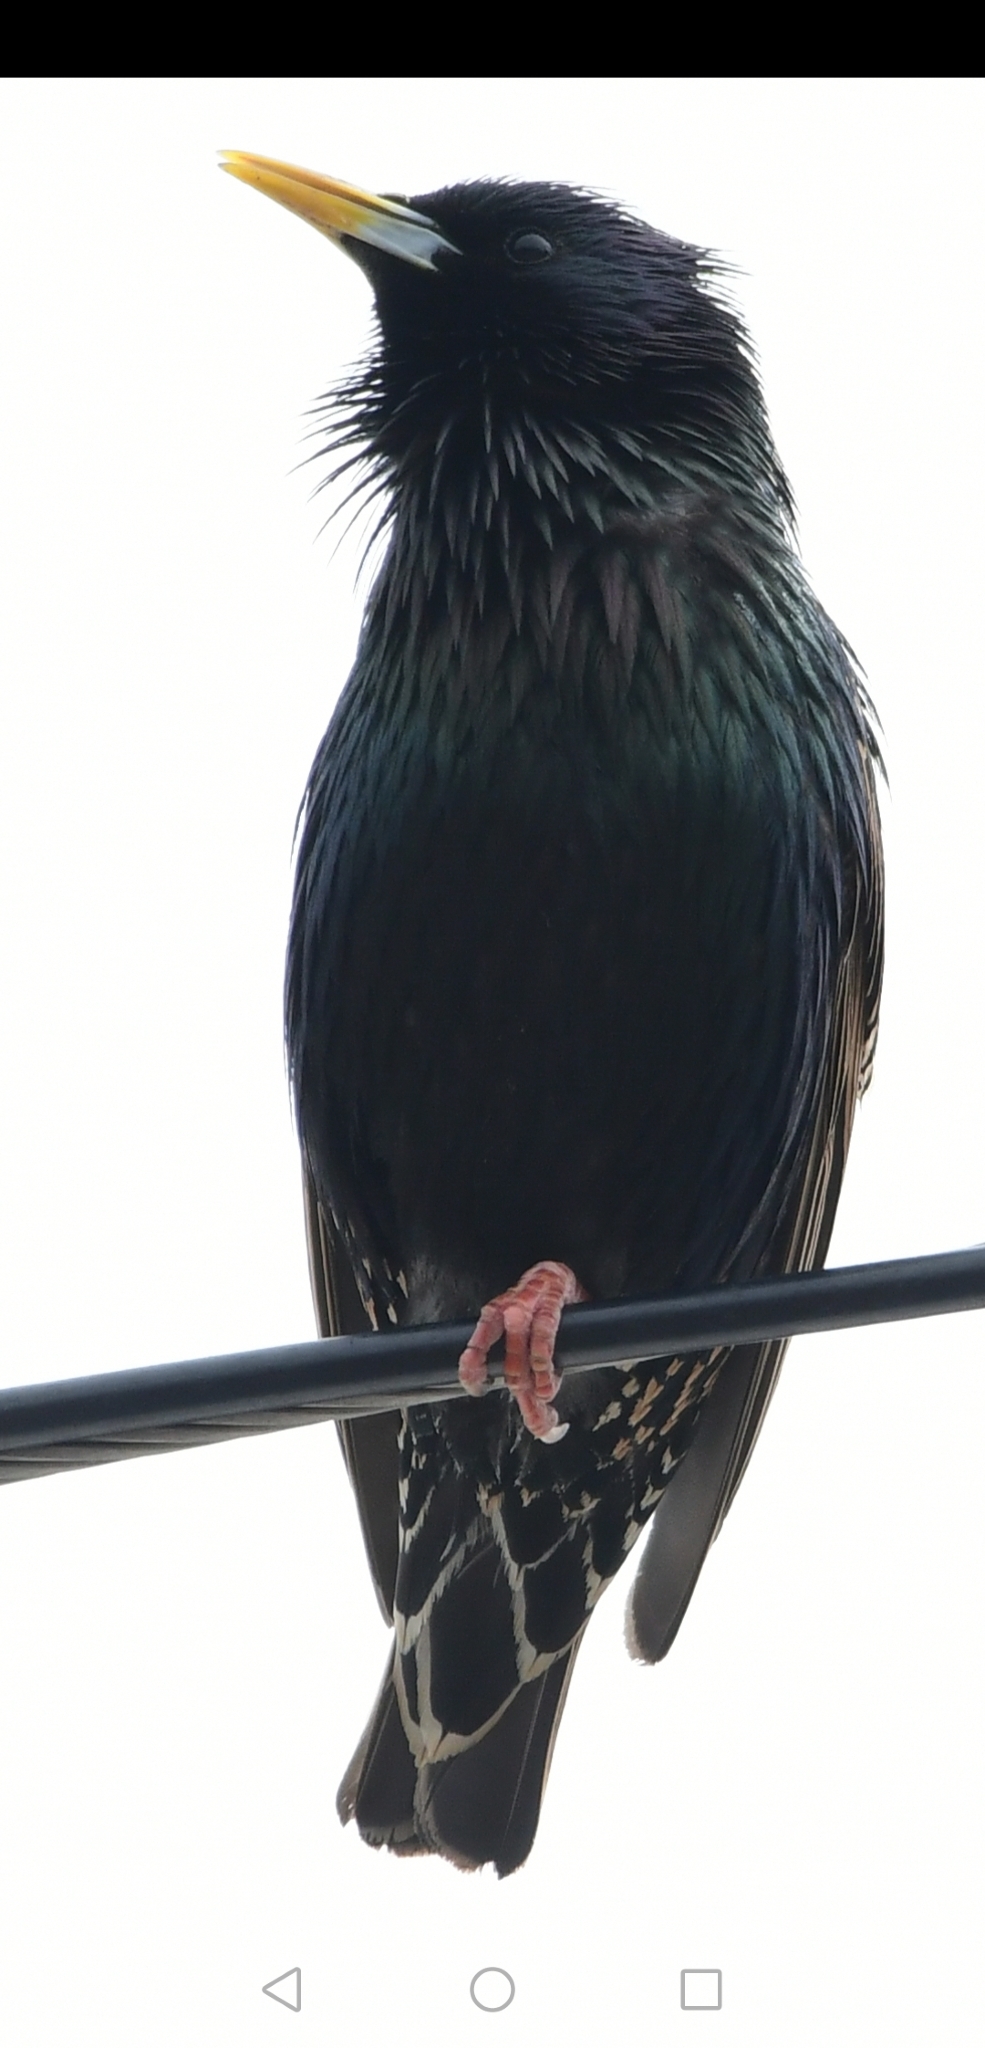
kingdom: Animalia
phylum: Chordata
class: Aves
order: Passeriformes
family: Sturnidae
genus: Sturnus
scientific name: Sturnus vulgaris
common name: Common starling
